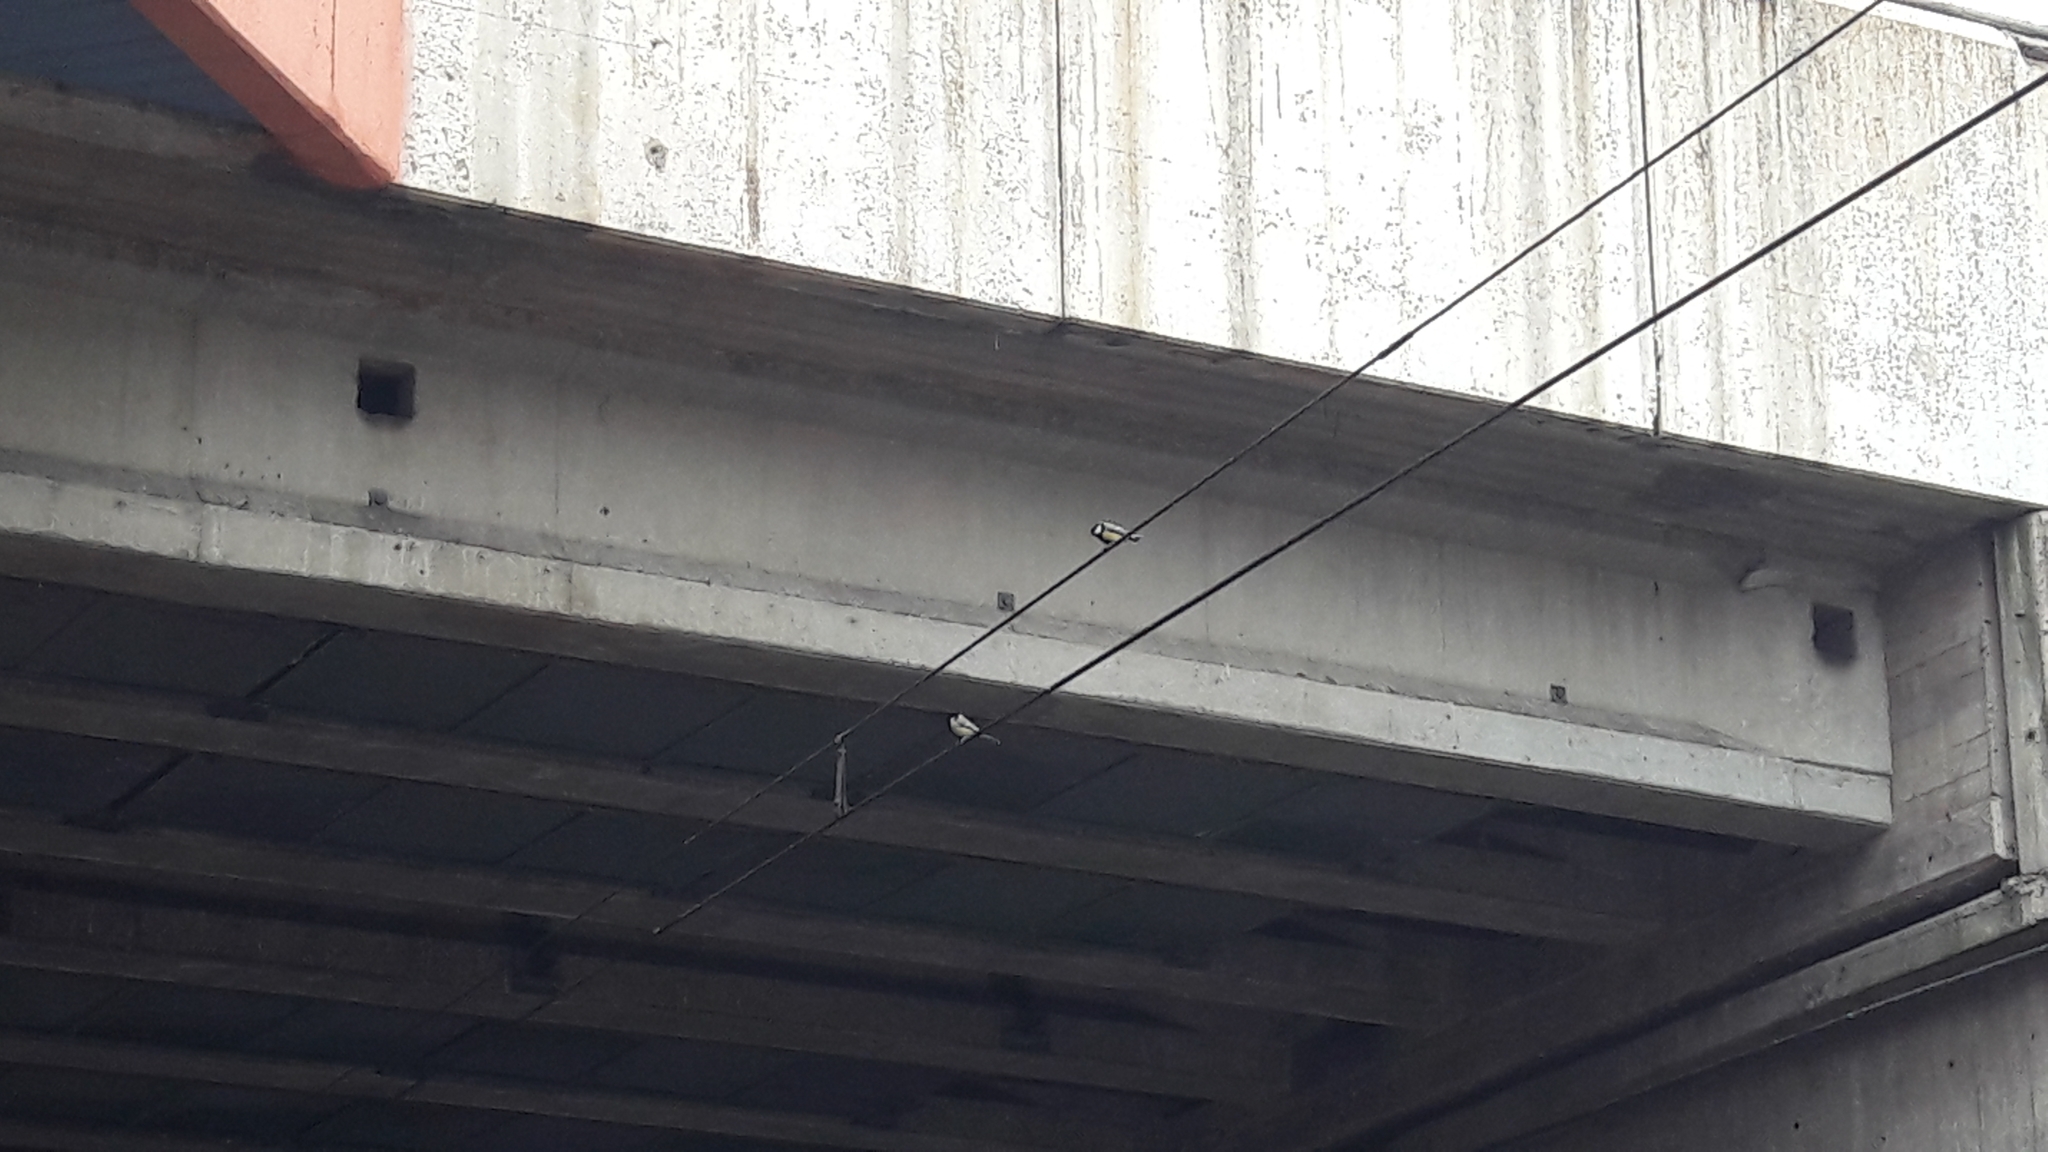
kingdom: Animalia
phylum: Chordata
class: Aves
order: Passeriformes
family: Paridae
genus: Parus
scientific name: Parus major
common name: Great tit
